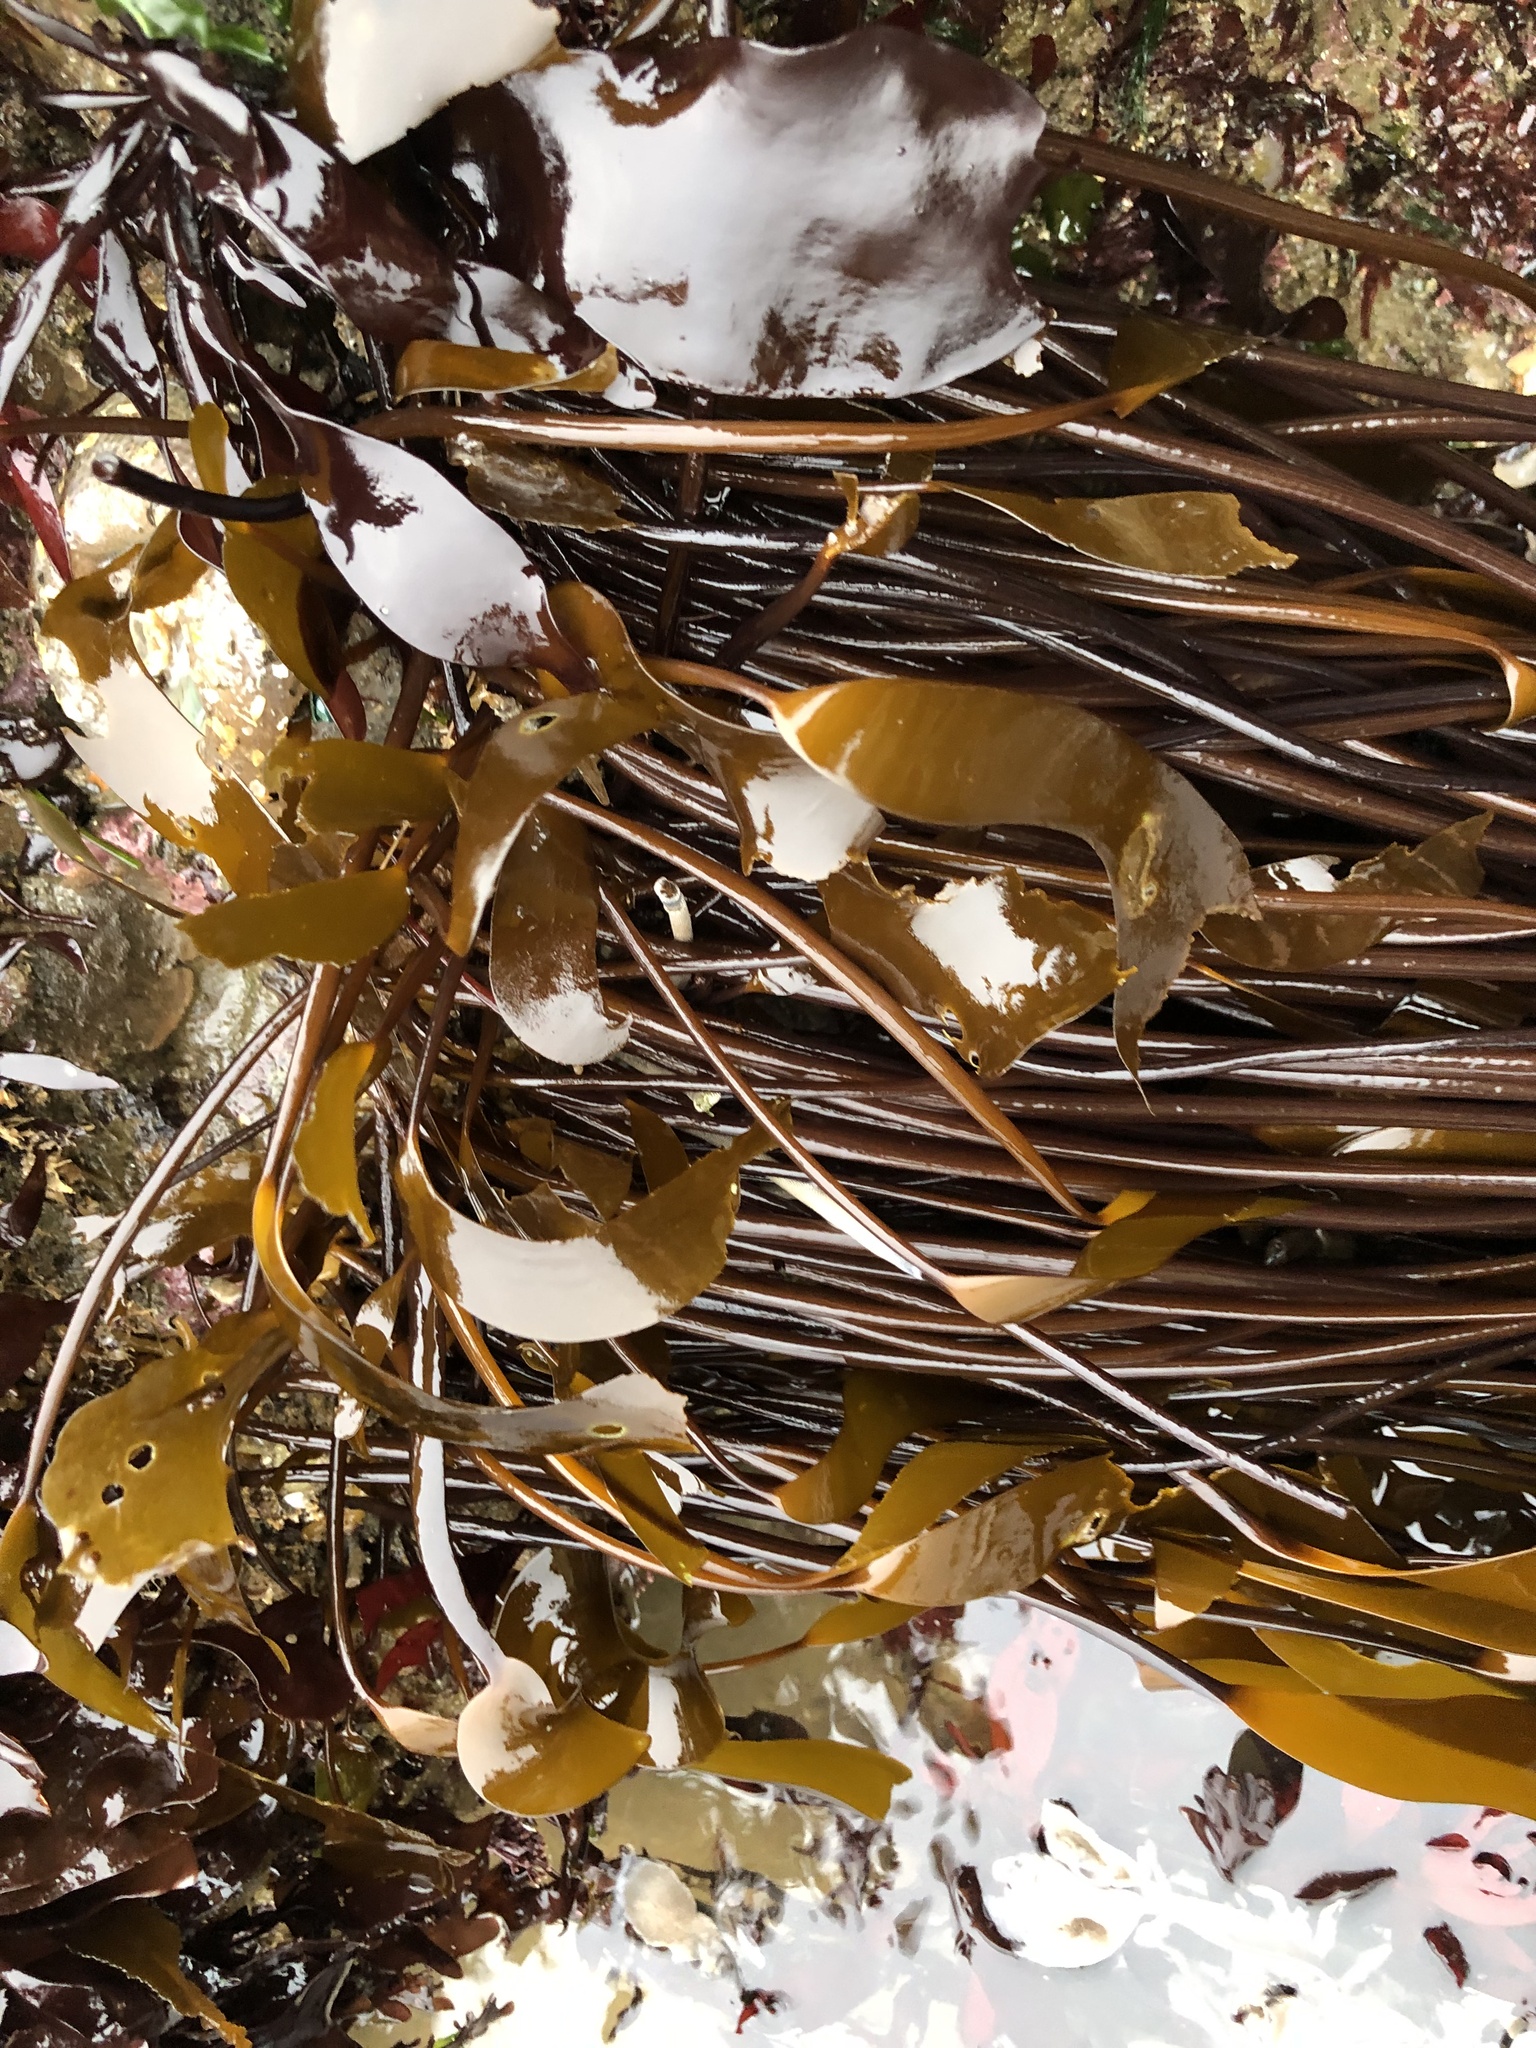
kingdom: Chromista
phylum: Ochrophyta
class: Phaeophyceae
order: Laminariales
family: Laminariaceae
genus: Laminaria
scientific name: Laminaria sinclairii
